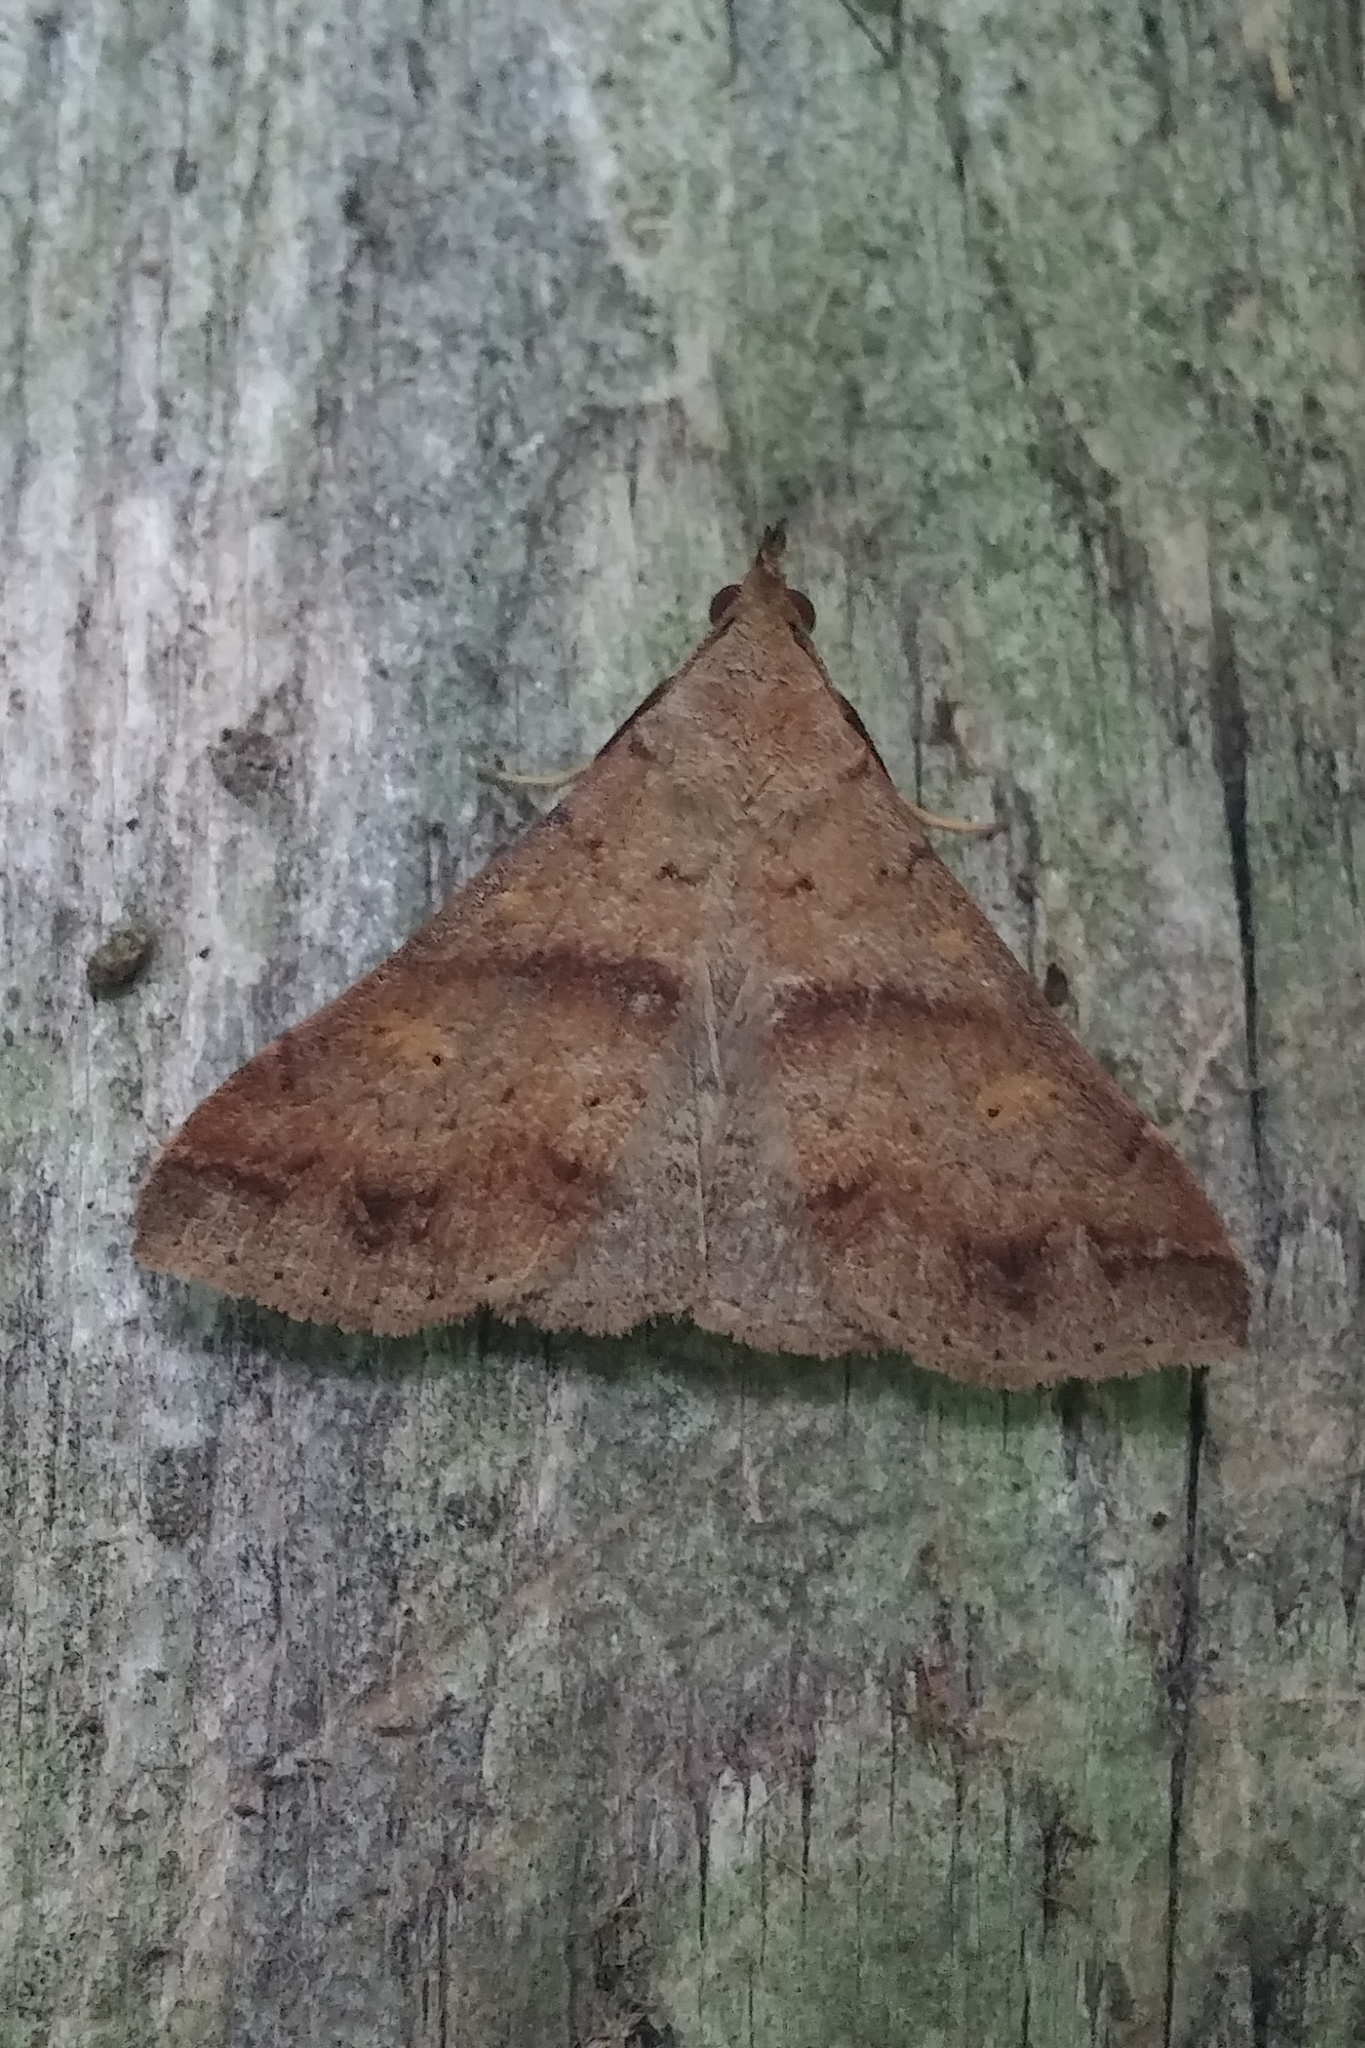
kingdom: Animalia
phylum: Arthropoda
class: Insecta
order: Lepidoptera
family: Erebidae
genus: Renia
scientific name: Renia discoloralis
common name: Discolored renia moth
